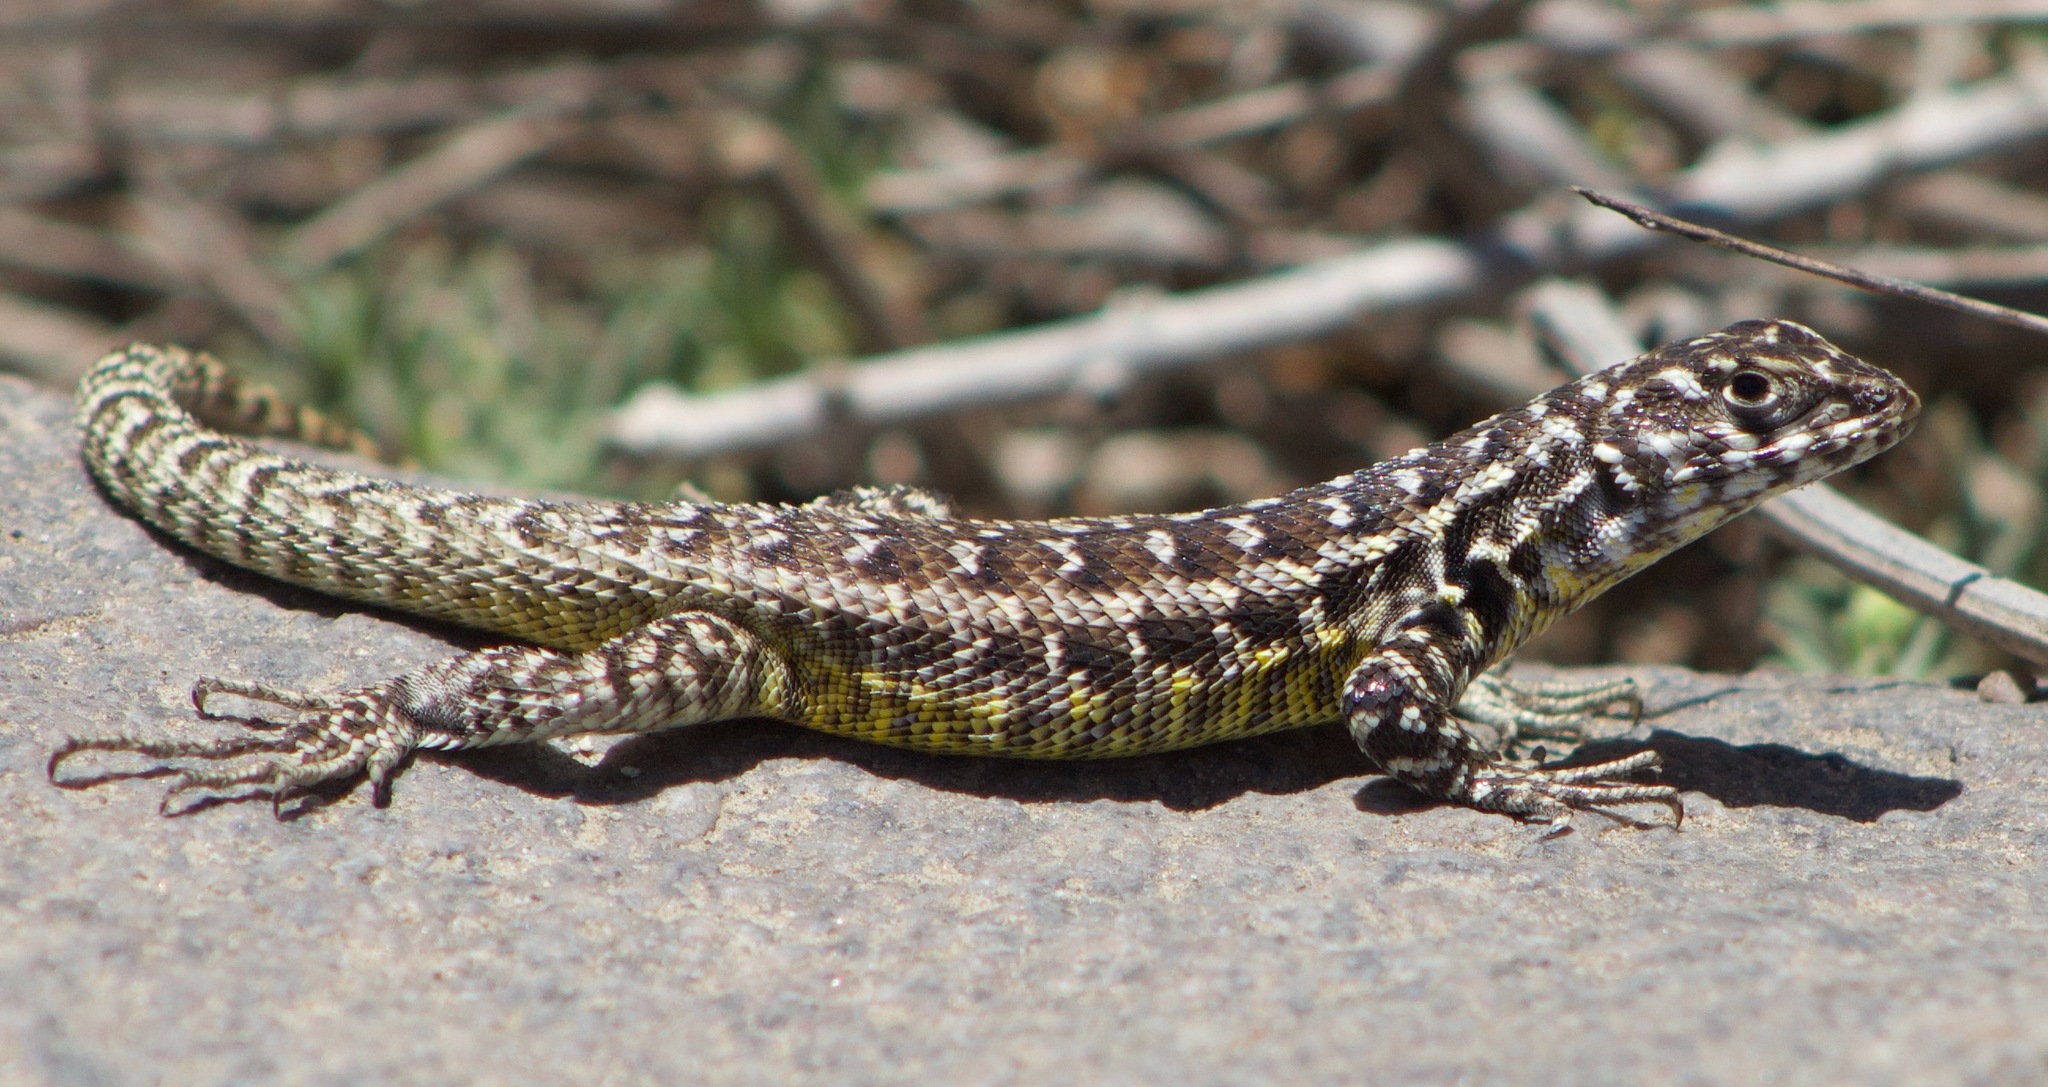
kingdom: Animalia
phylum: Chordata
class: Squamata
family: Liolaemidae
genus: Liolaemus
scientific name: Liolaemus zapallarensis
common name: Zapallaren tree iguana
